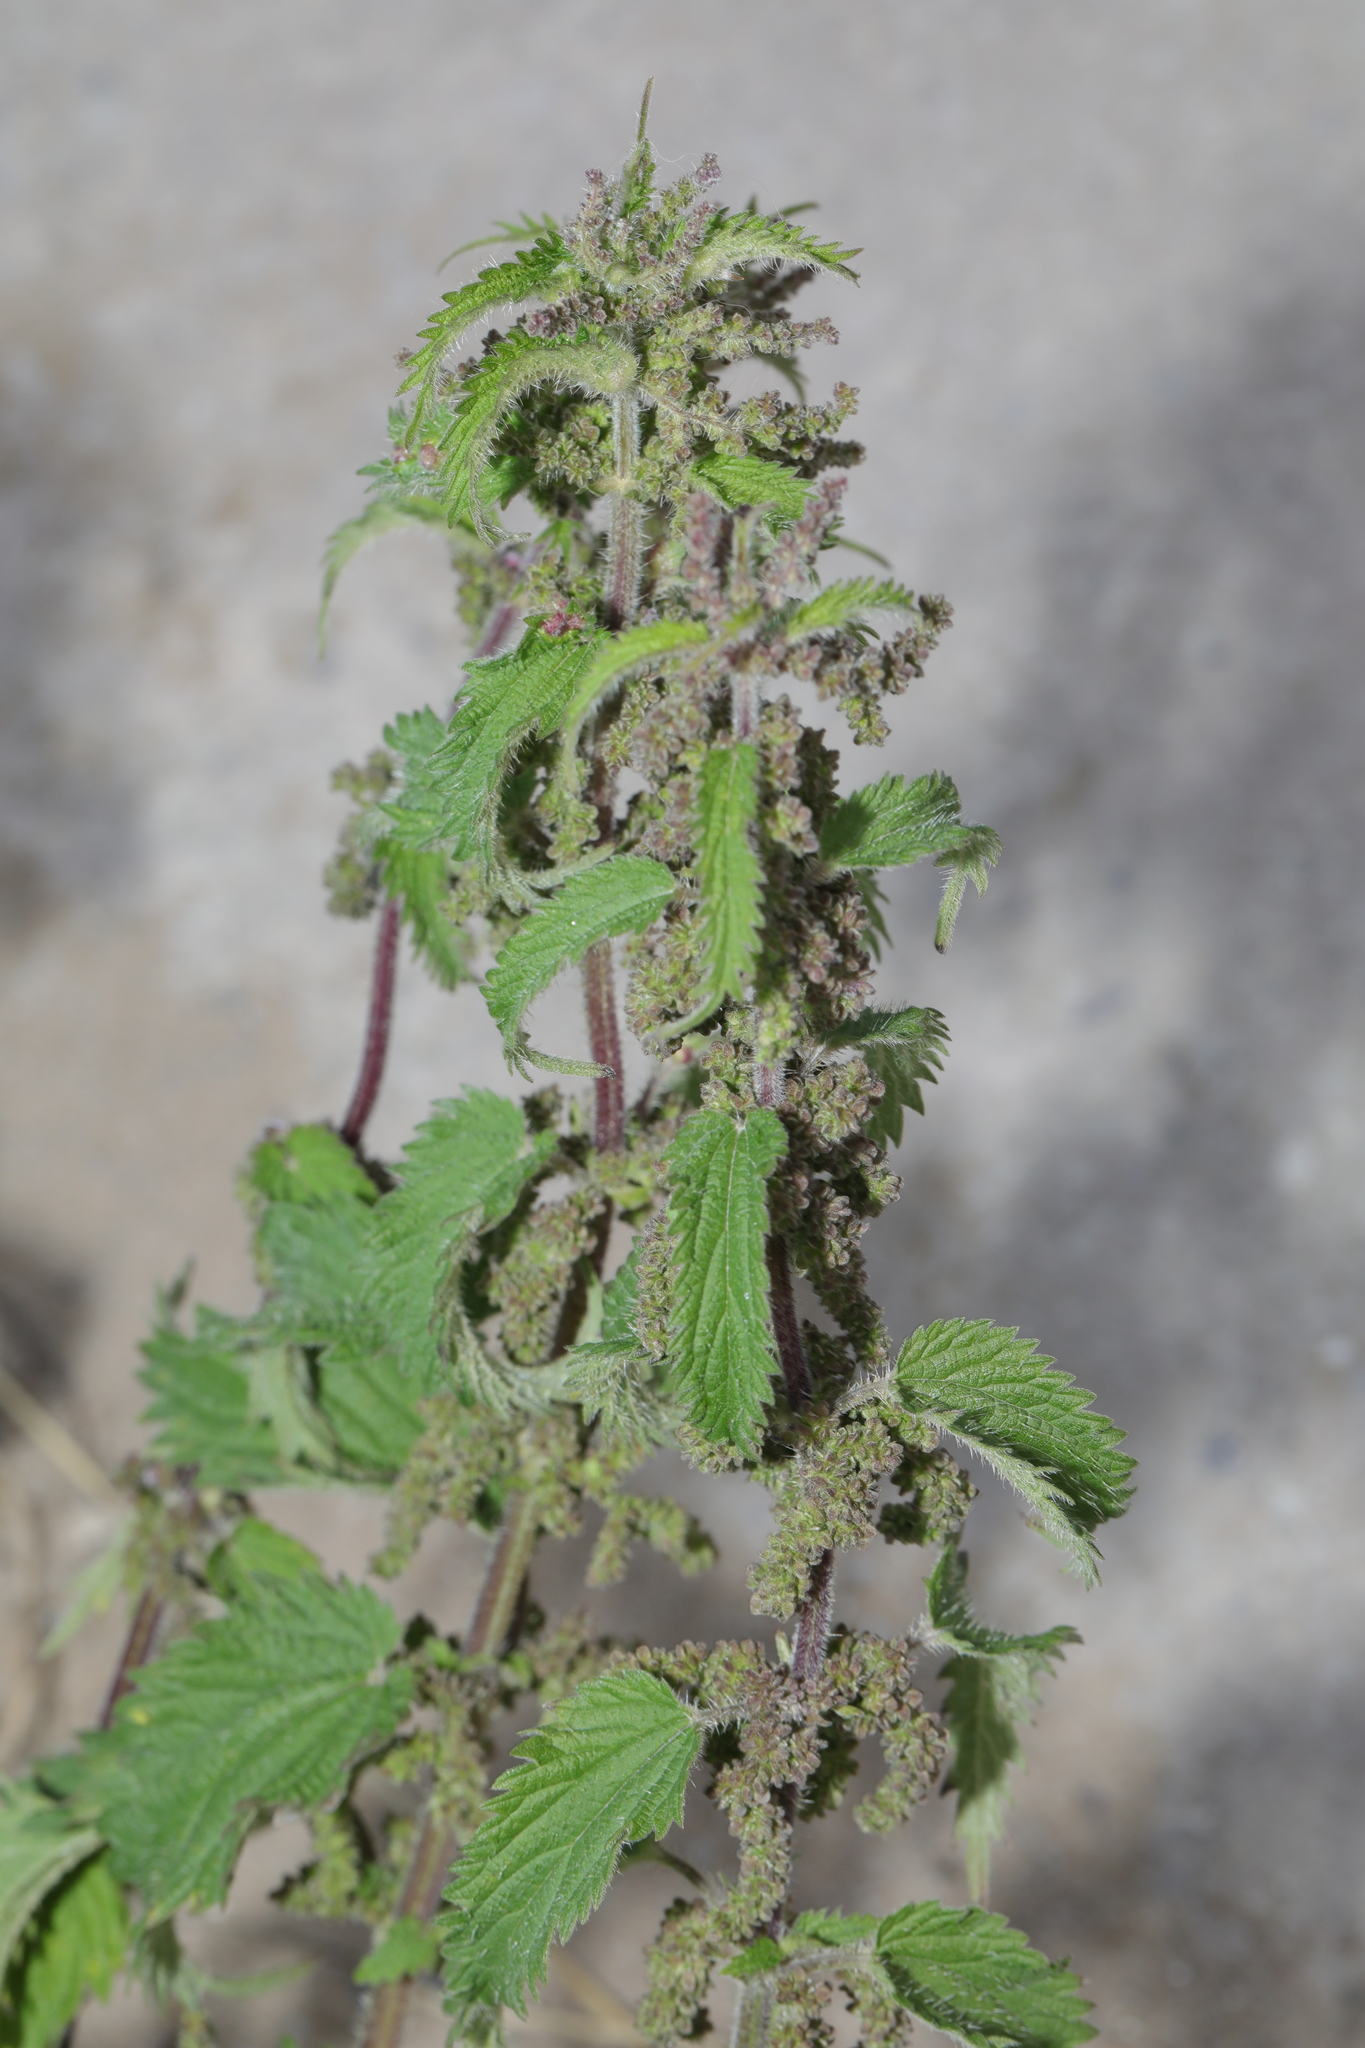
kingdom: Plantae
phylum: Tracheophyta
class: Magnoliopsida
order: Rosales
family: Urticaceae
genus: Urtica
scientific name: Urtica dioica
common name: Common nettle
